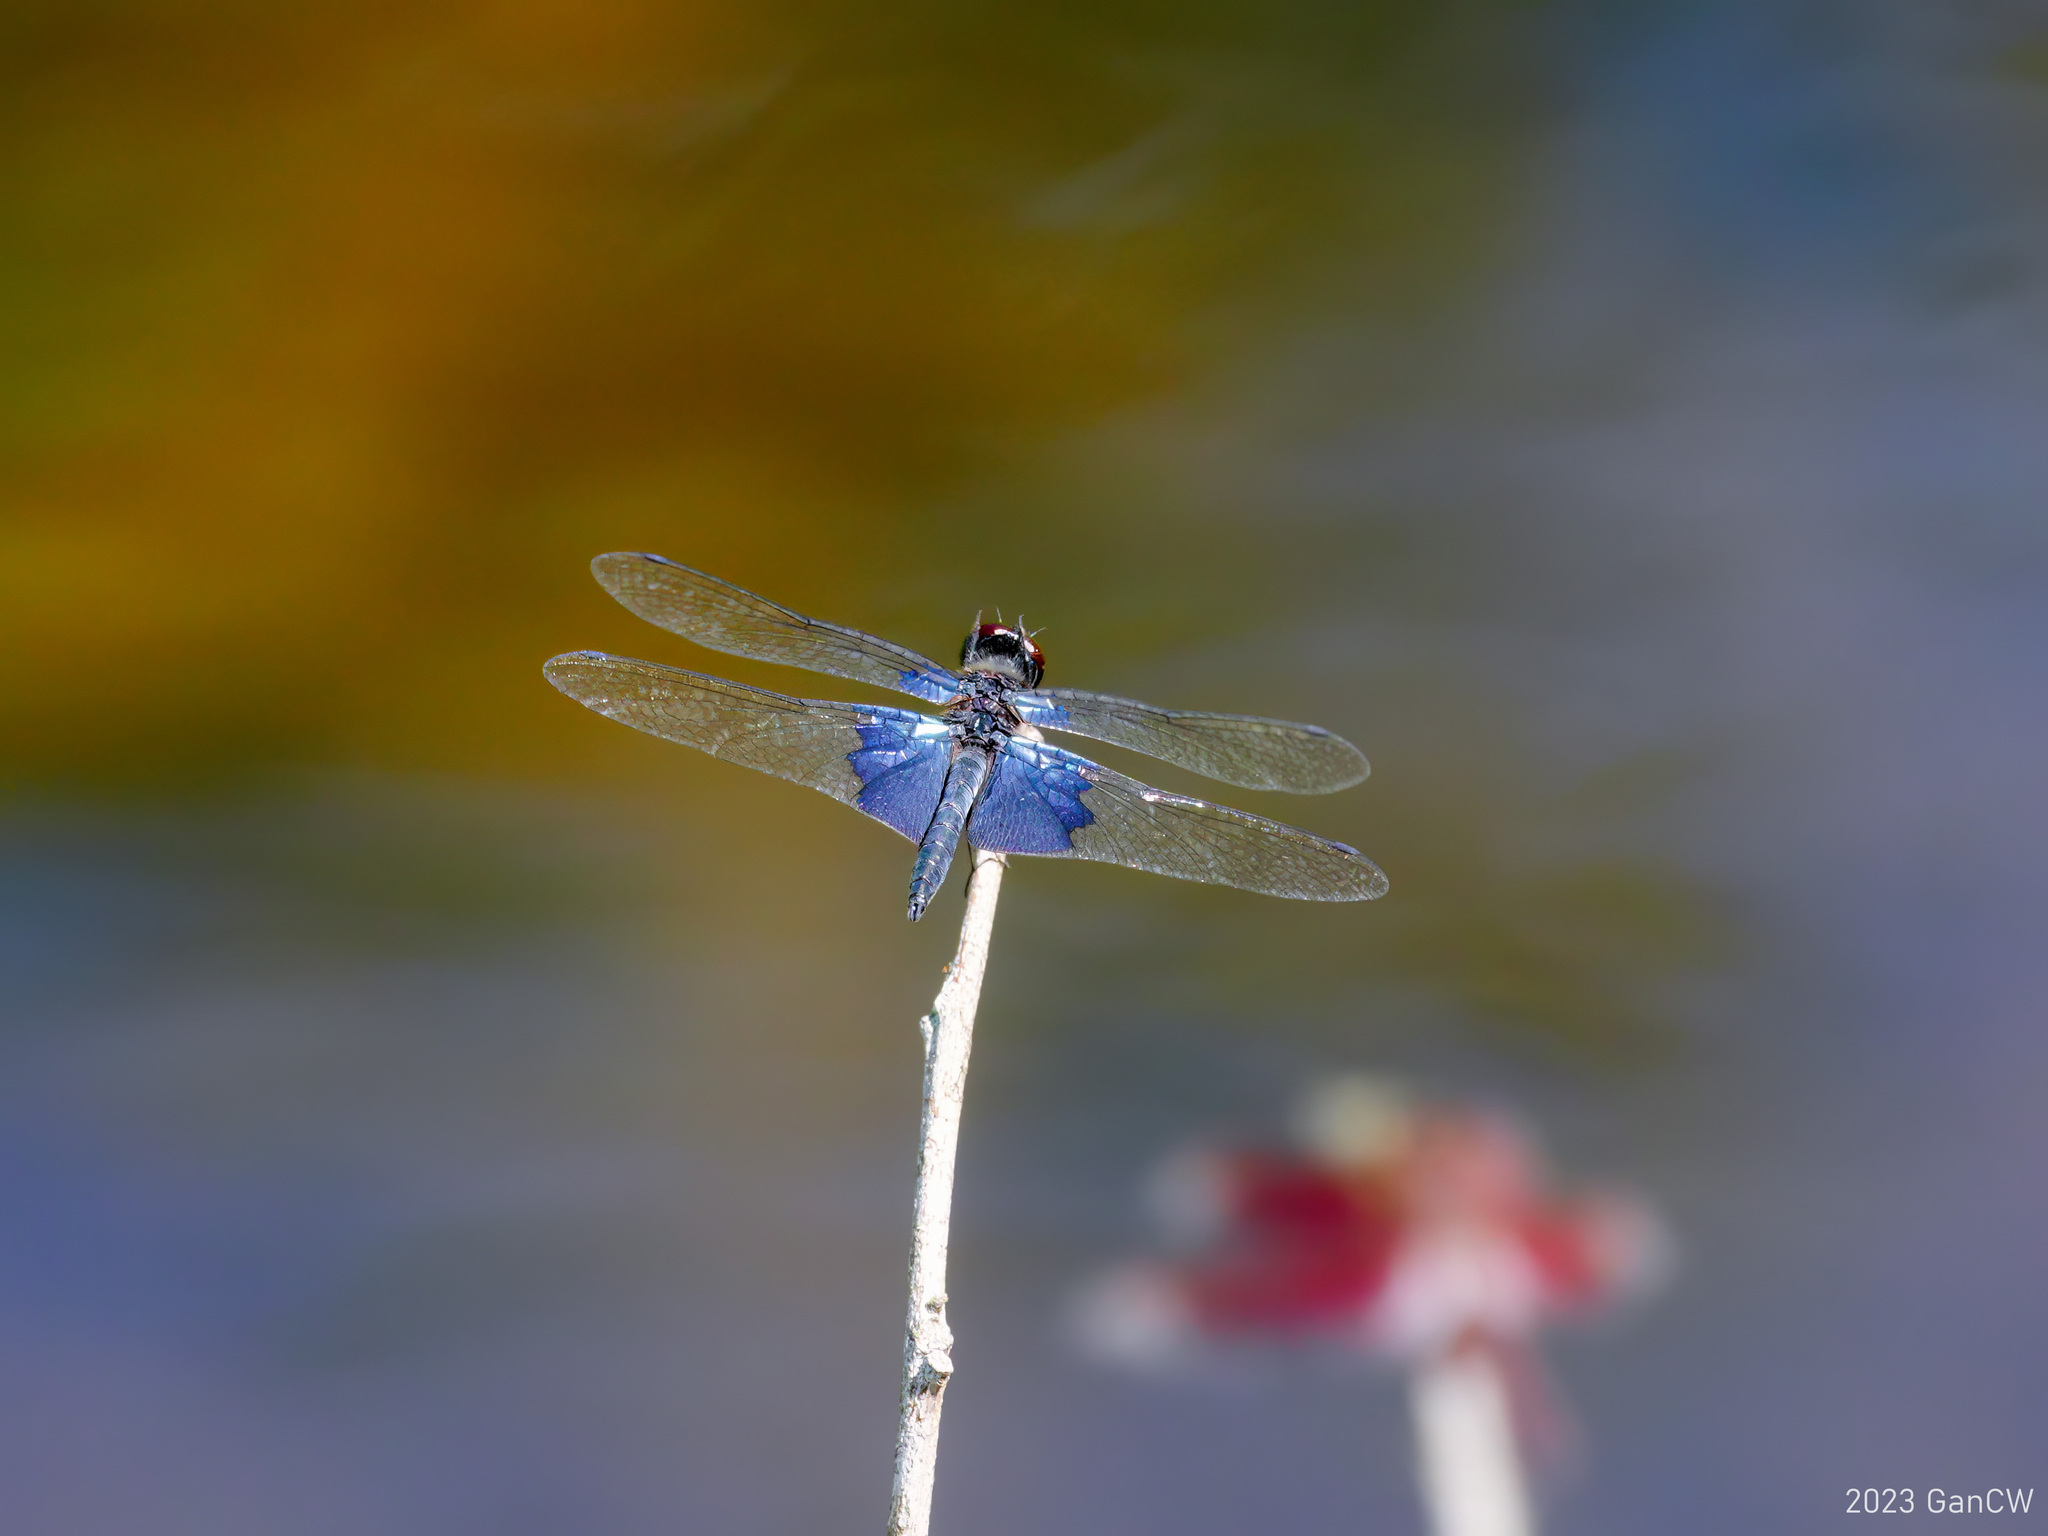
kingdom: Animalia
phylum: Arthropoda
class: Insecta
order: Odonata
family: Libellulidae
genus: Rhyothemis
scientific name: Rhyothemis triangularis
